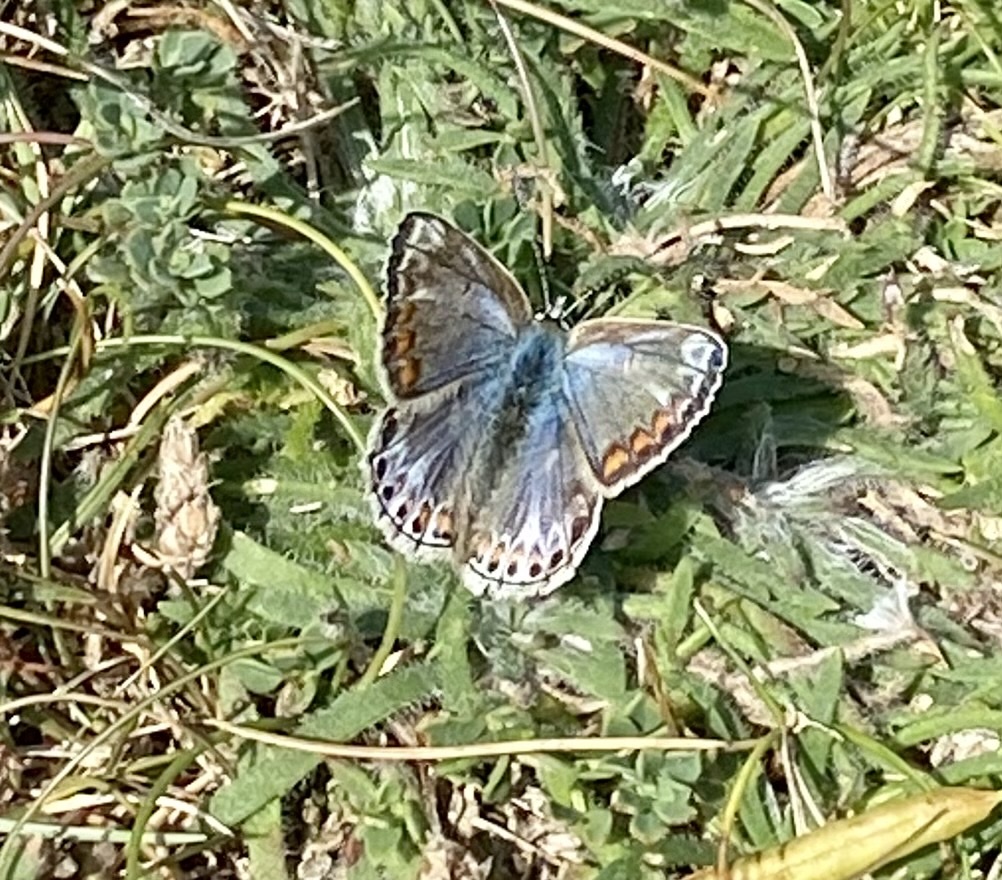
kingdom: Animalia
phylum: Arthropoda
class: Insecta
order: Lepidoptera
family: Lycaenidae
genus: Polyommatus
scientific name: Polyommatus icarus
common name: Common blue
